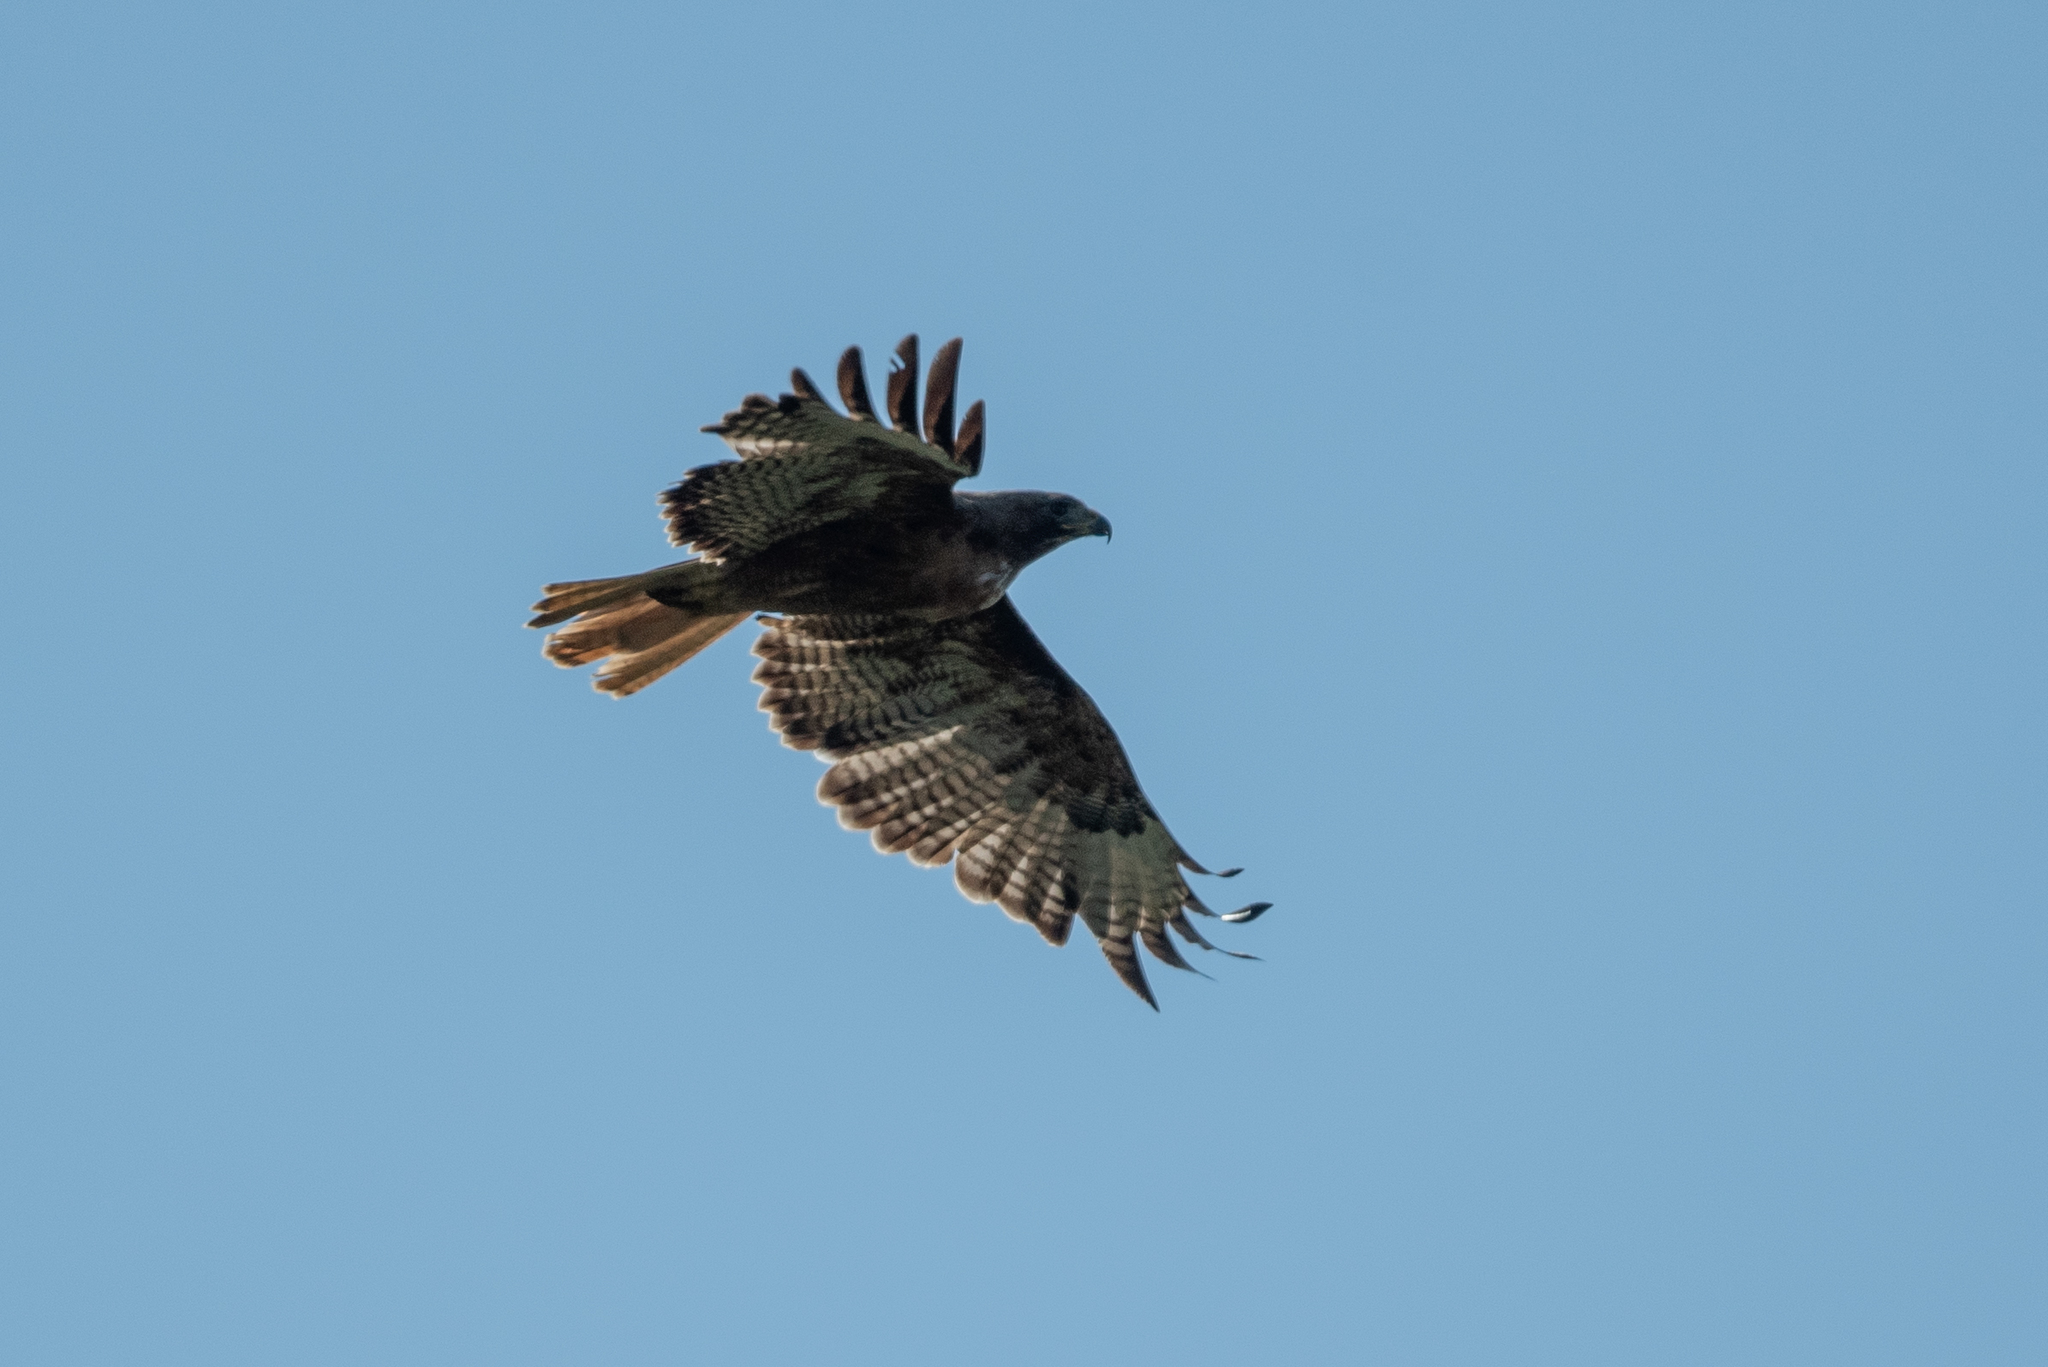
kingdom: Animalia
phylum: Chordata
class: Aves
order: Accipitriformes
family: Accipitridae
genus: Buteo
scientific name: Buteo jamaicensis
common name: Red-tailed hawk
